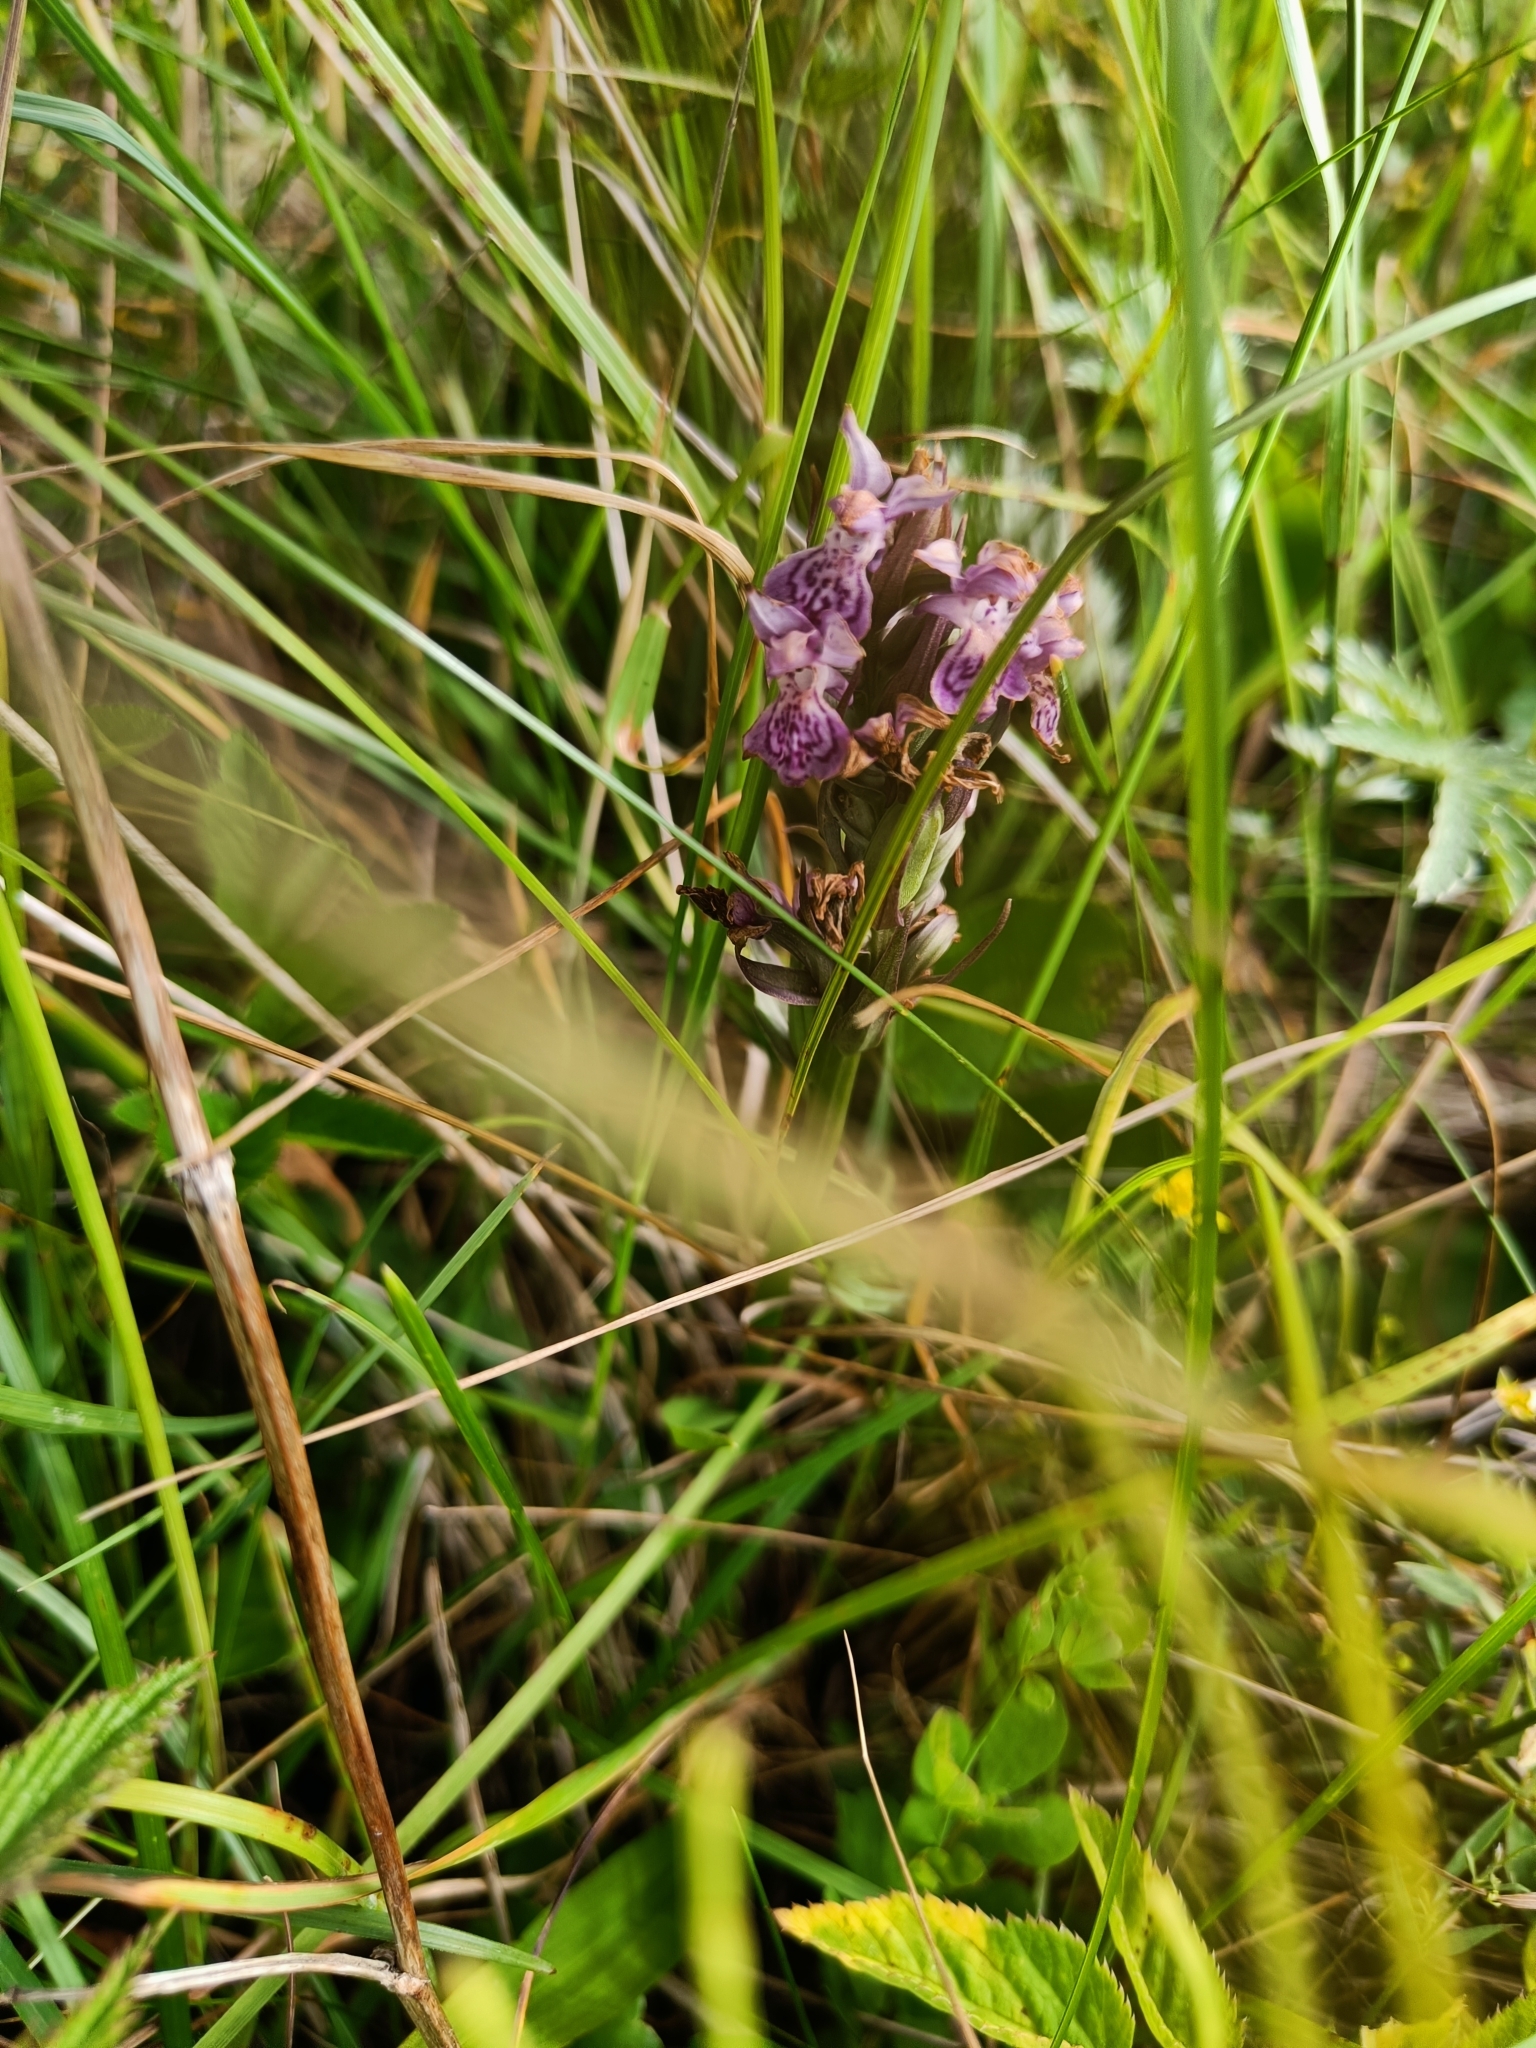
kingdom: Plantae
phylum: Tracheophyta
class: Liliopsida
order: Asparagales
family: Orchidaceae
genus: Dactylorhiza
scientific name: Dactylorhiza majalis
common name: Marsh orchid
